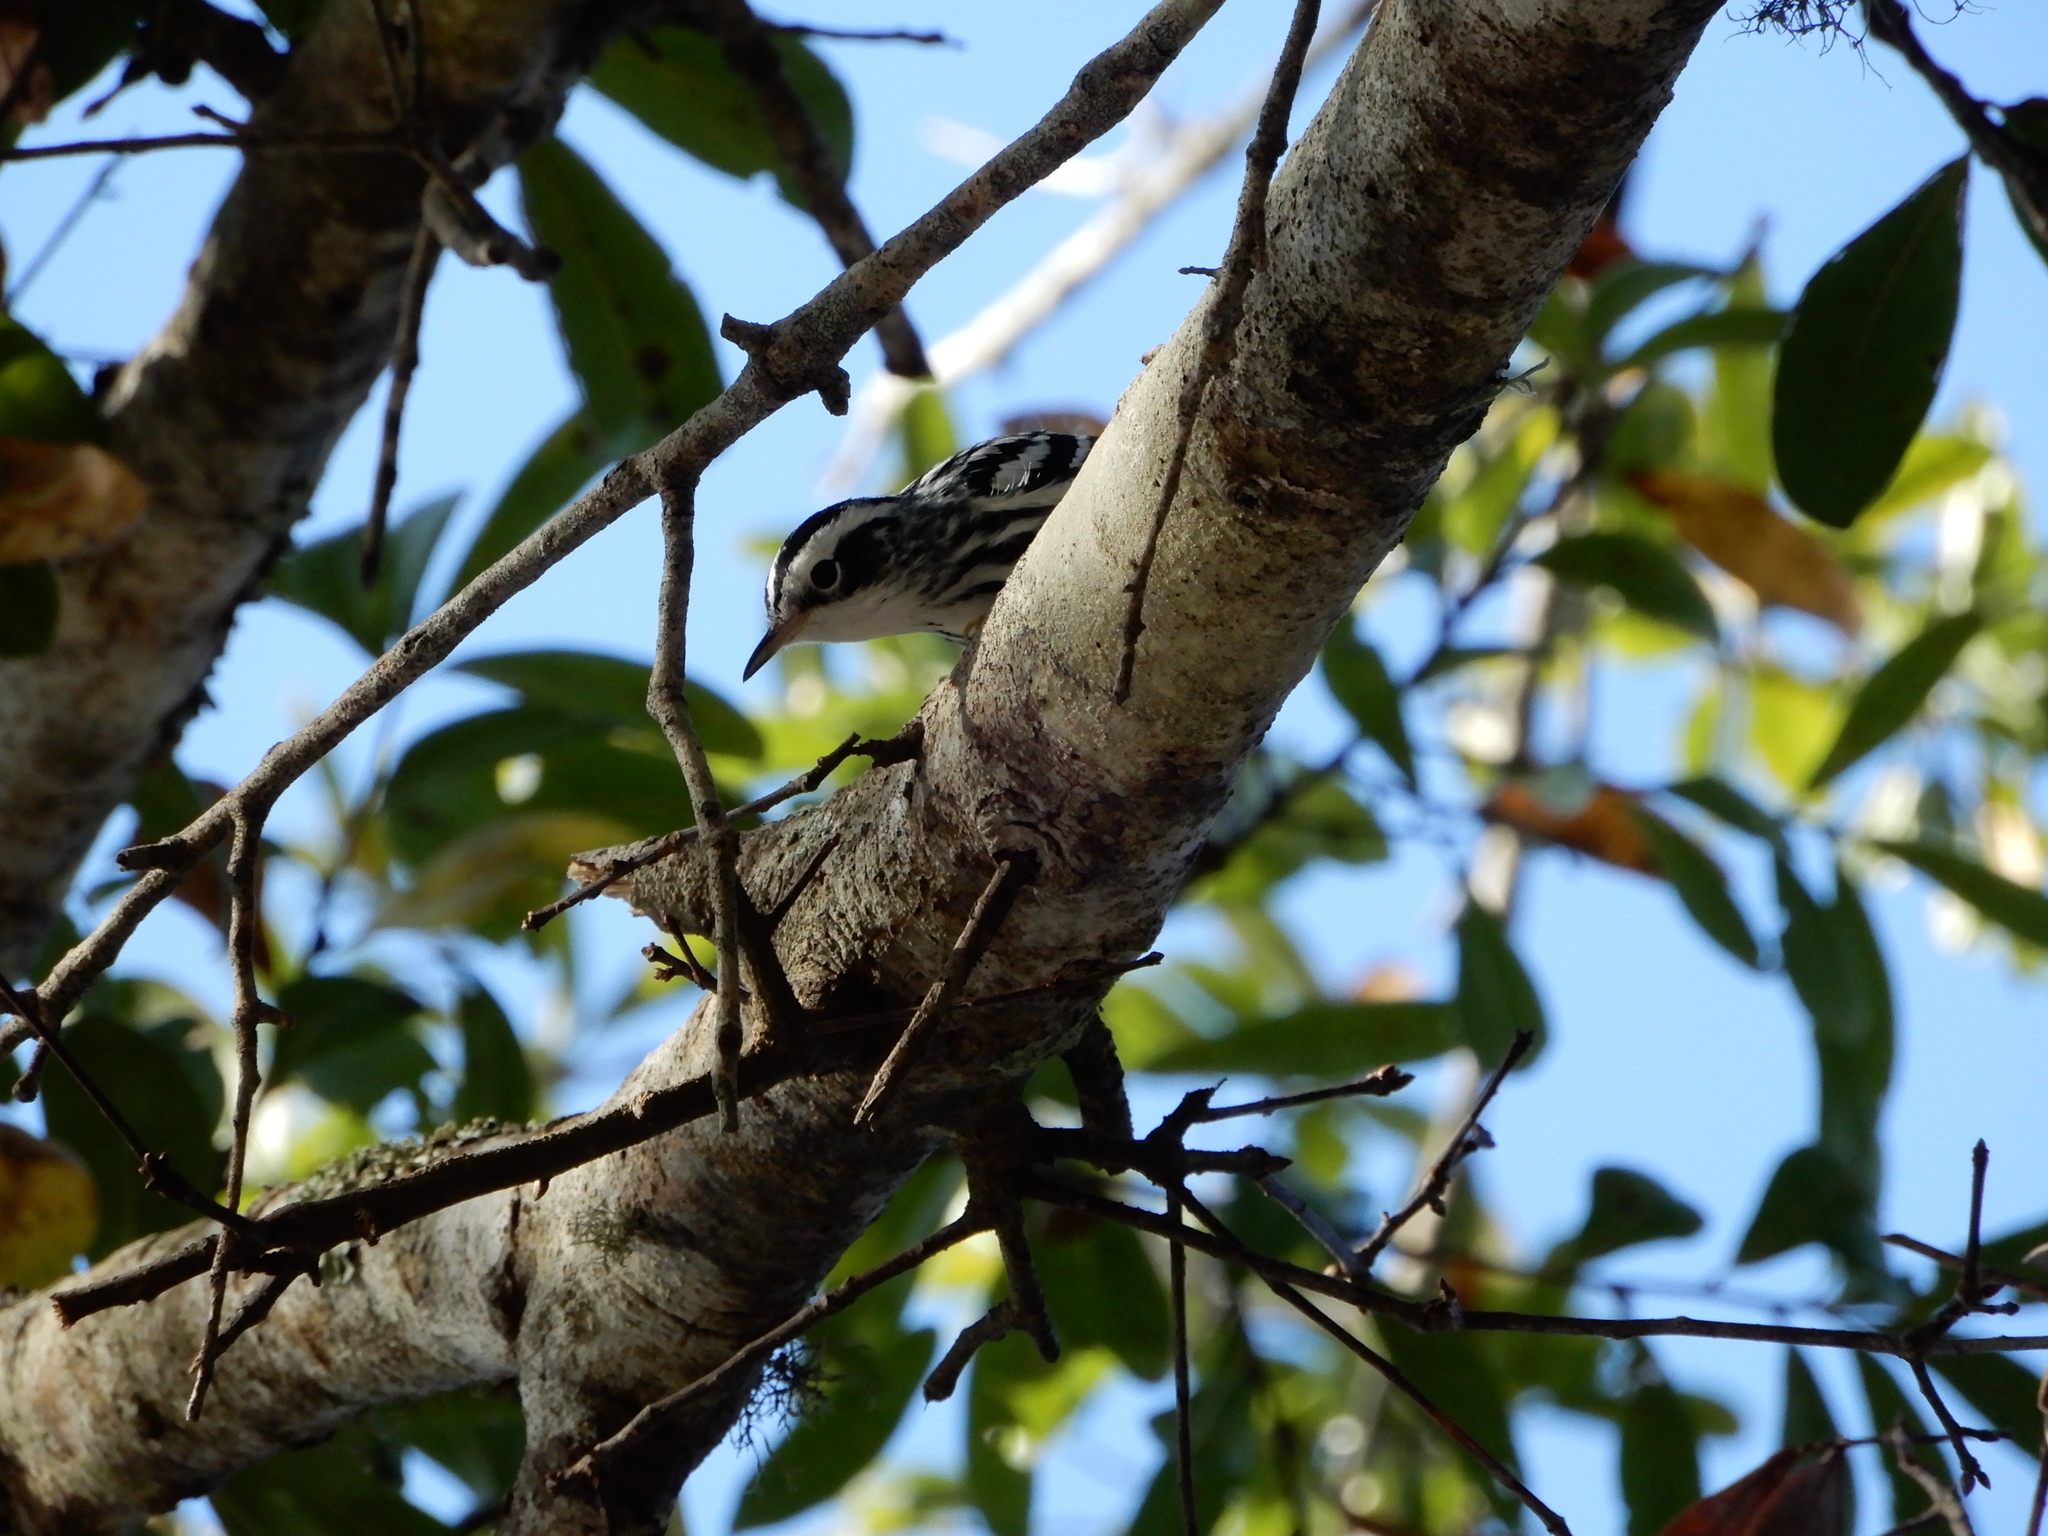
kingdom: Animalia
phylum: Chordata
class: Aves
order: Passeriformes
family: Parulidae
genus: Mniotilta
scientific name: Mniotilta varia
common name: Black-and-white warbler
